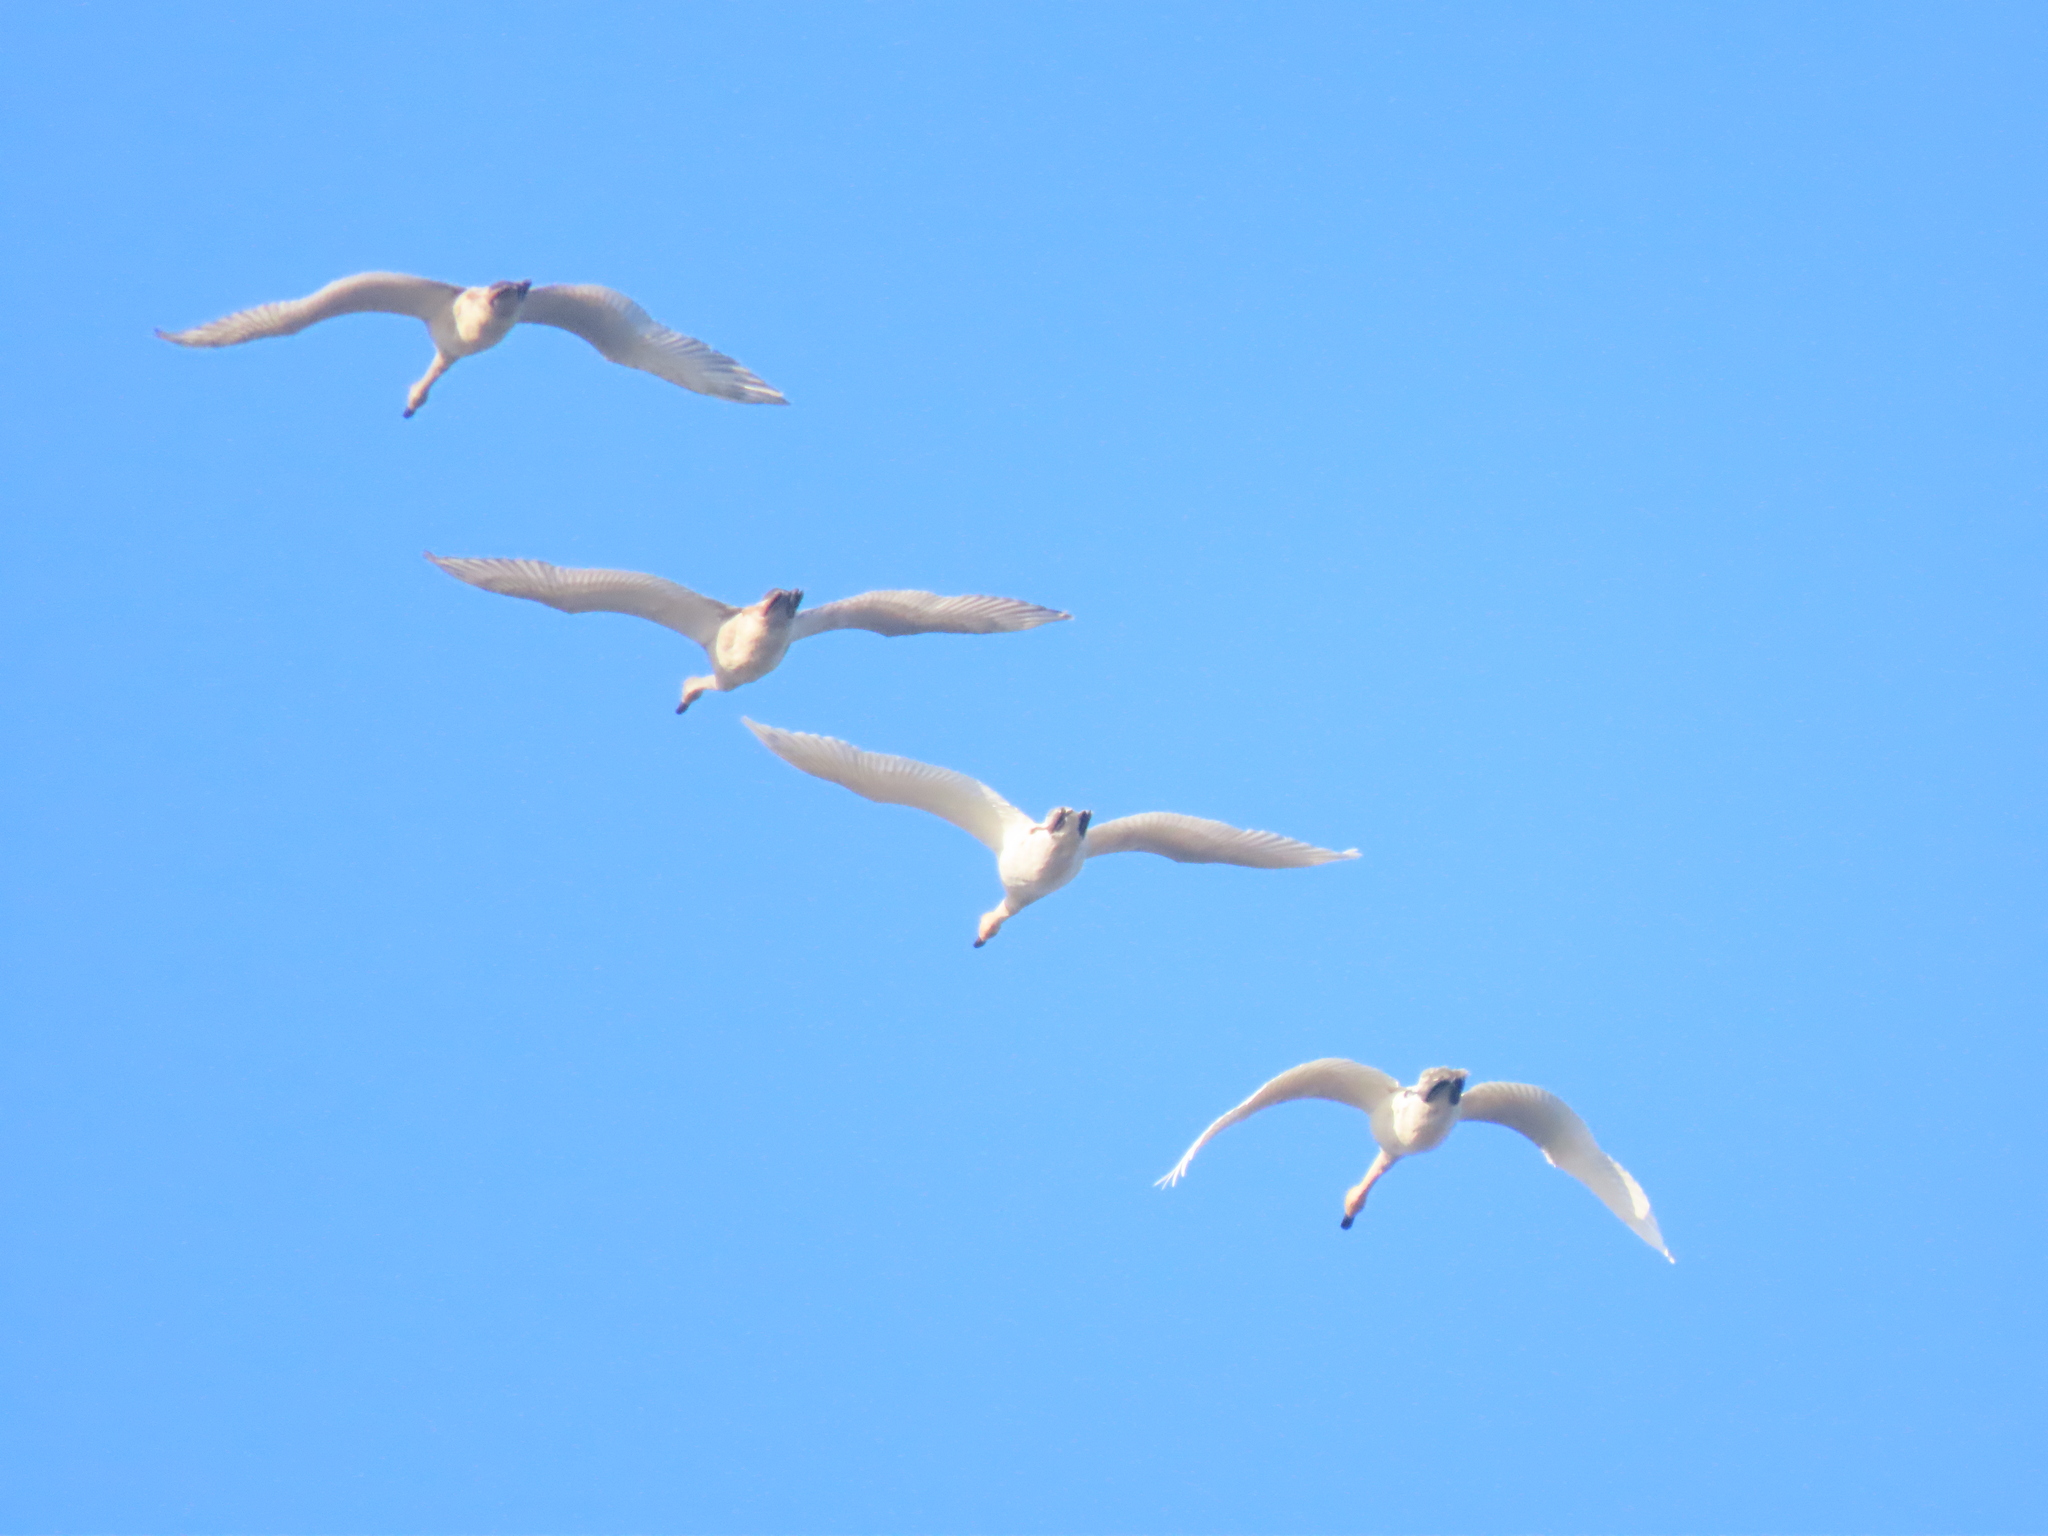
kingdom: Animalia
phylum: Chordata
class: Aves
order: Anseriformes
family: Anatidae
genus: Cygnus
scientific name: Cygnus buccinator
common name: Trumpeter swan
